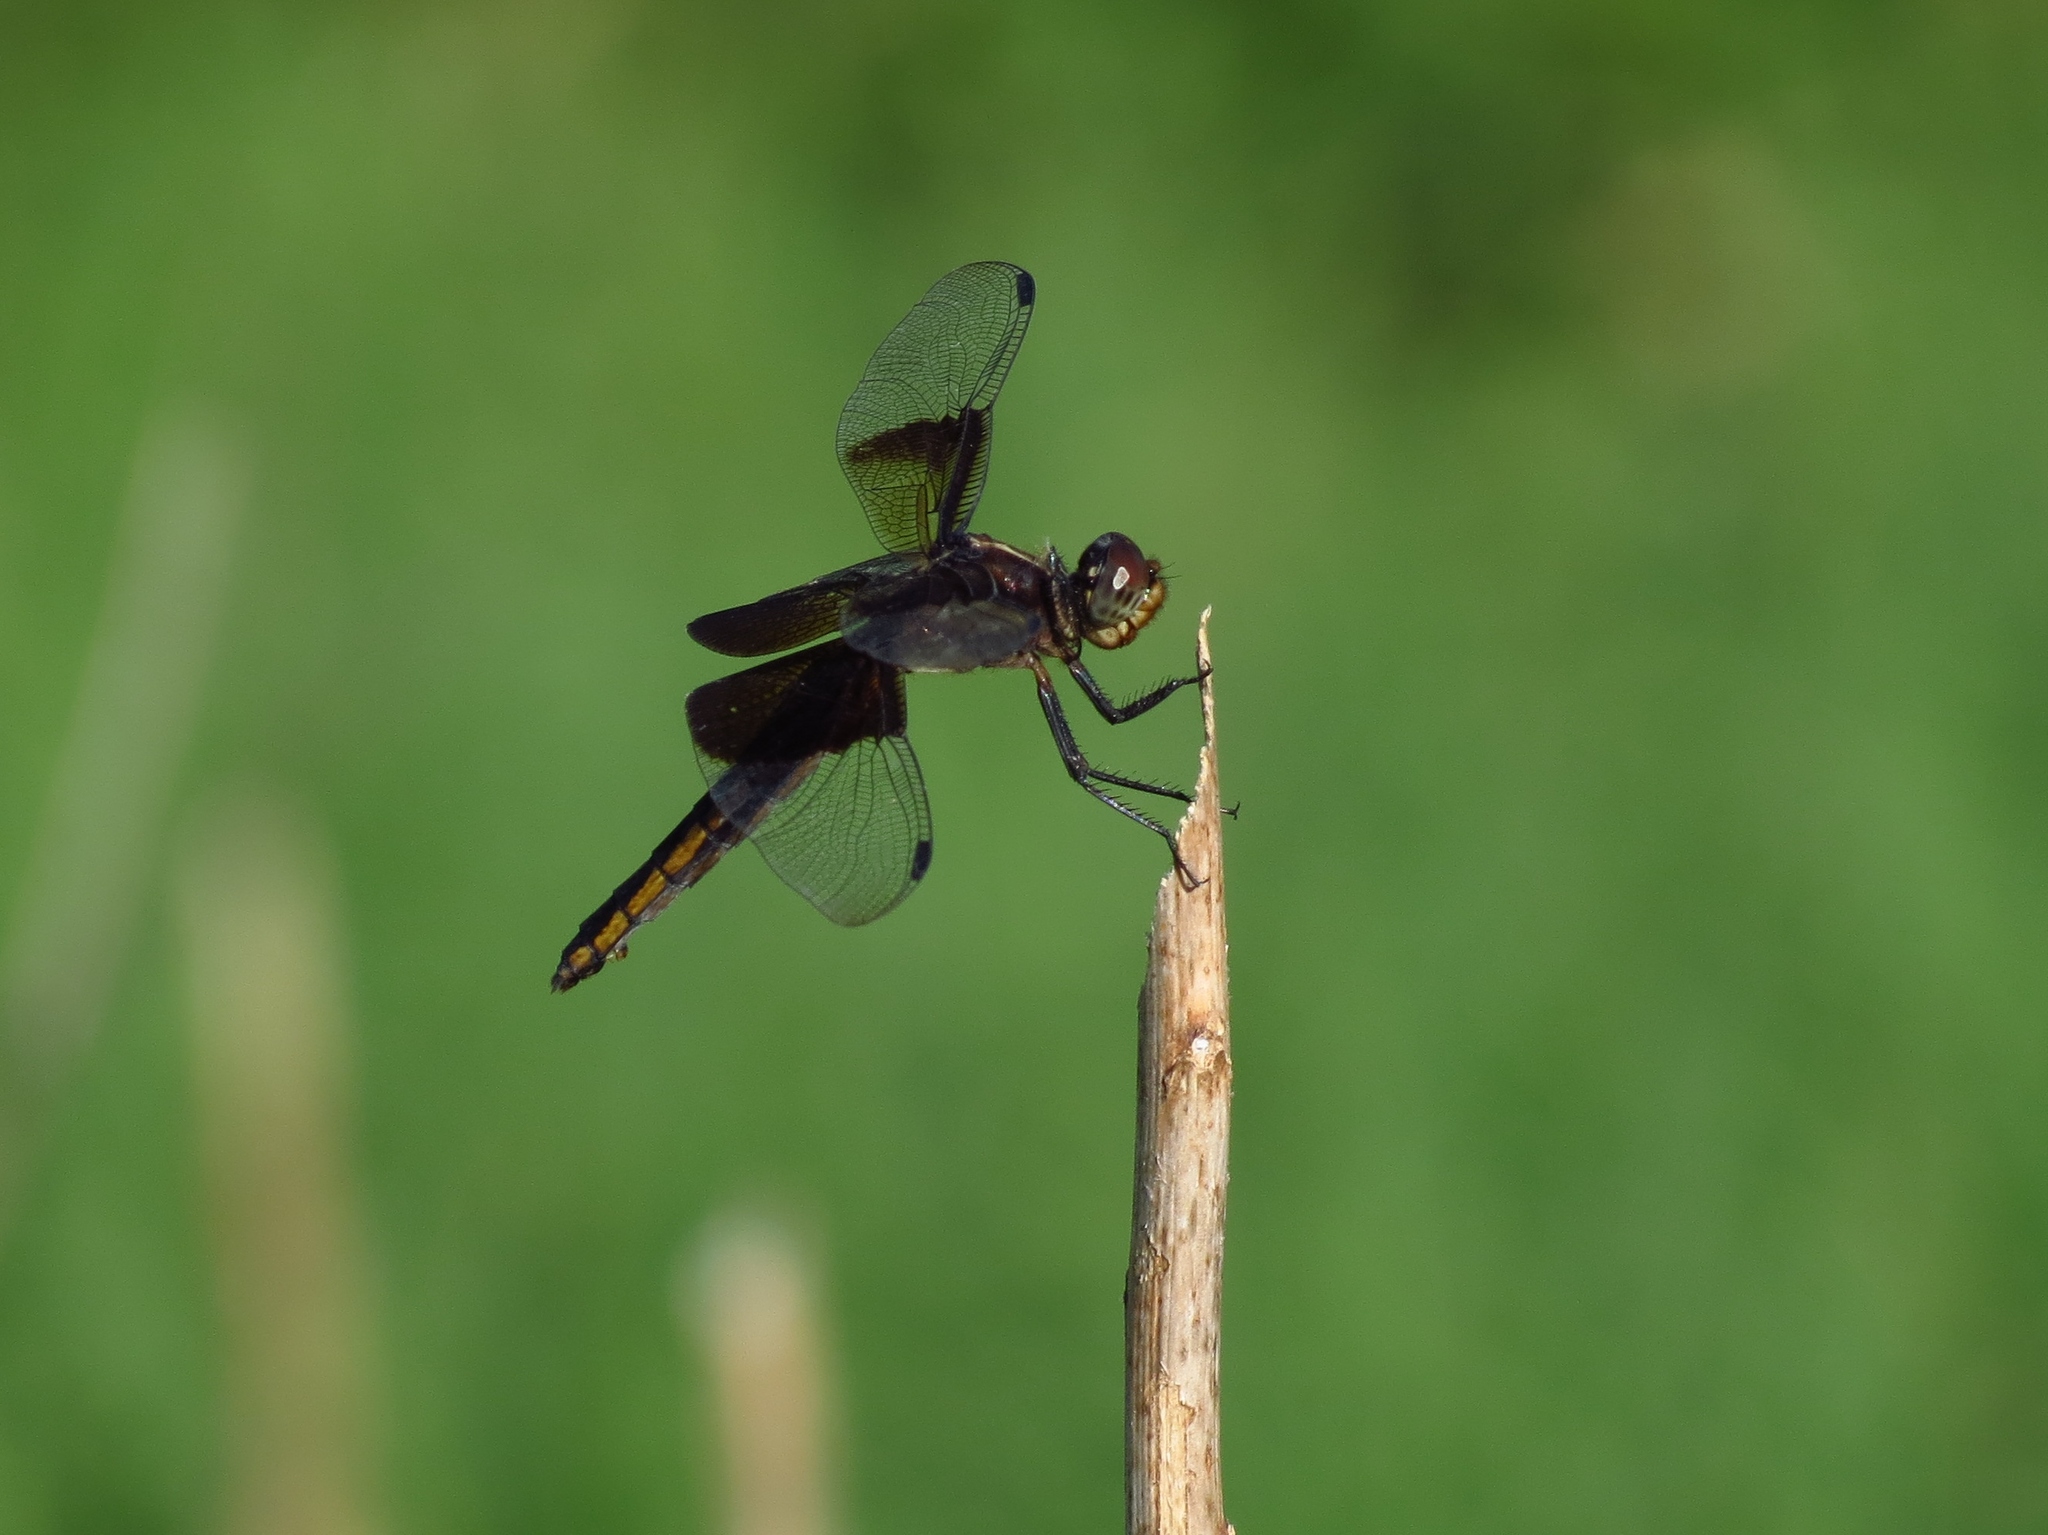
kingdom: Animalia
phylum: Arthropoda
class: Insecta
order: Odonata
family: Libellulidae
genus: Libellula
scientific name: Libellula luctuosa
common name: Widow skimmer
